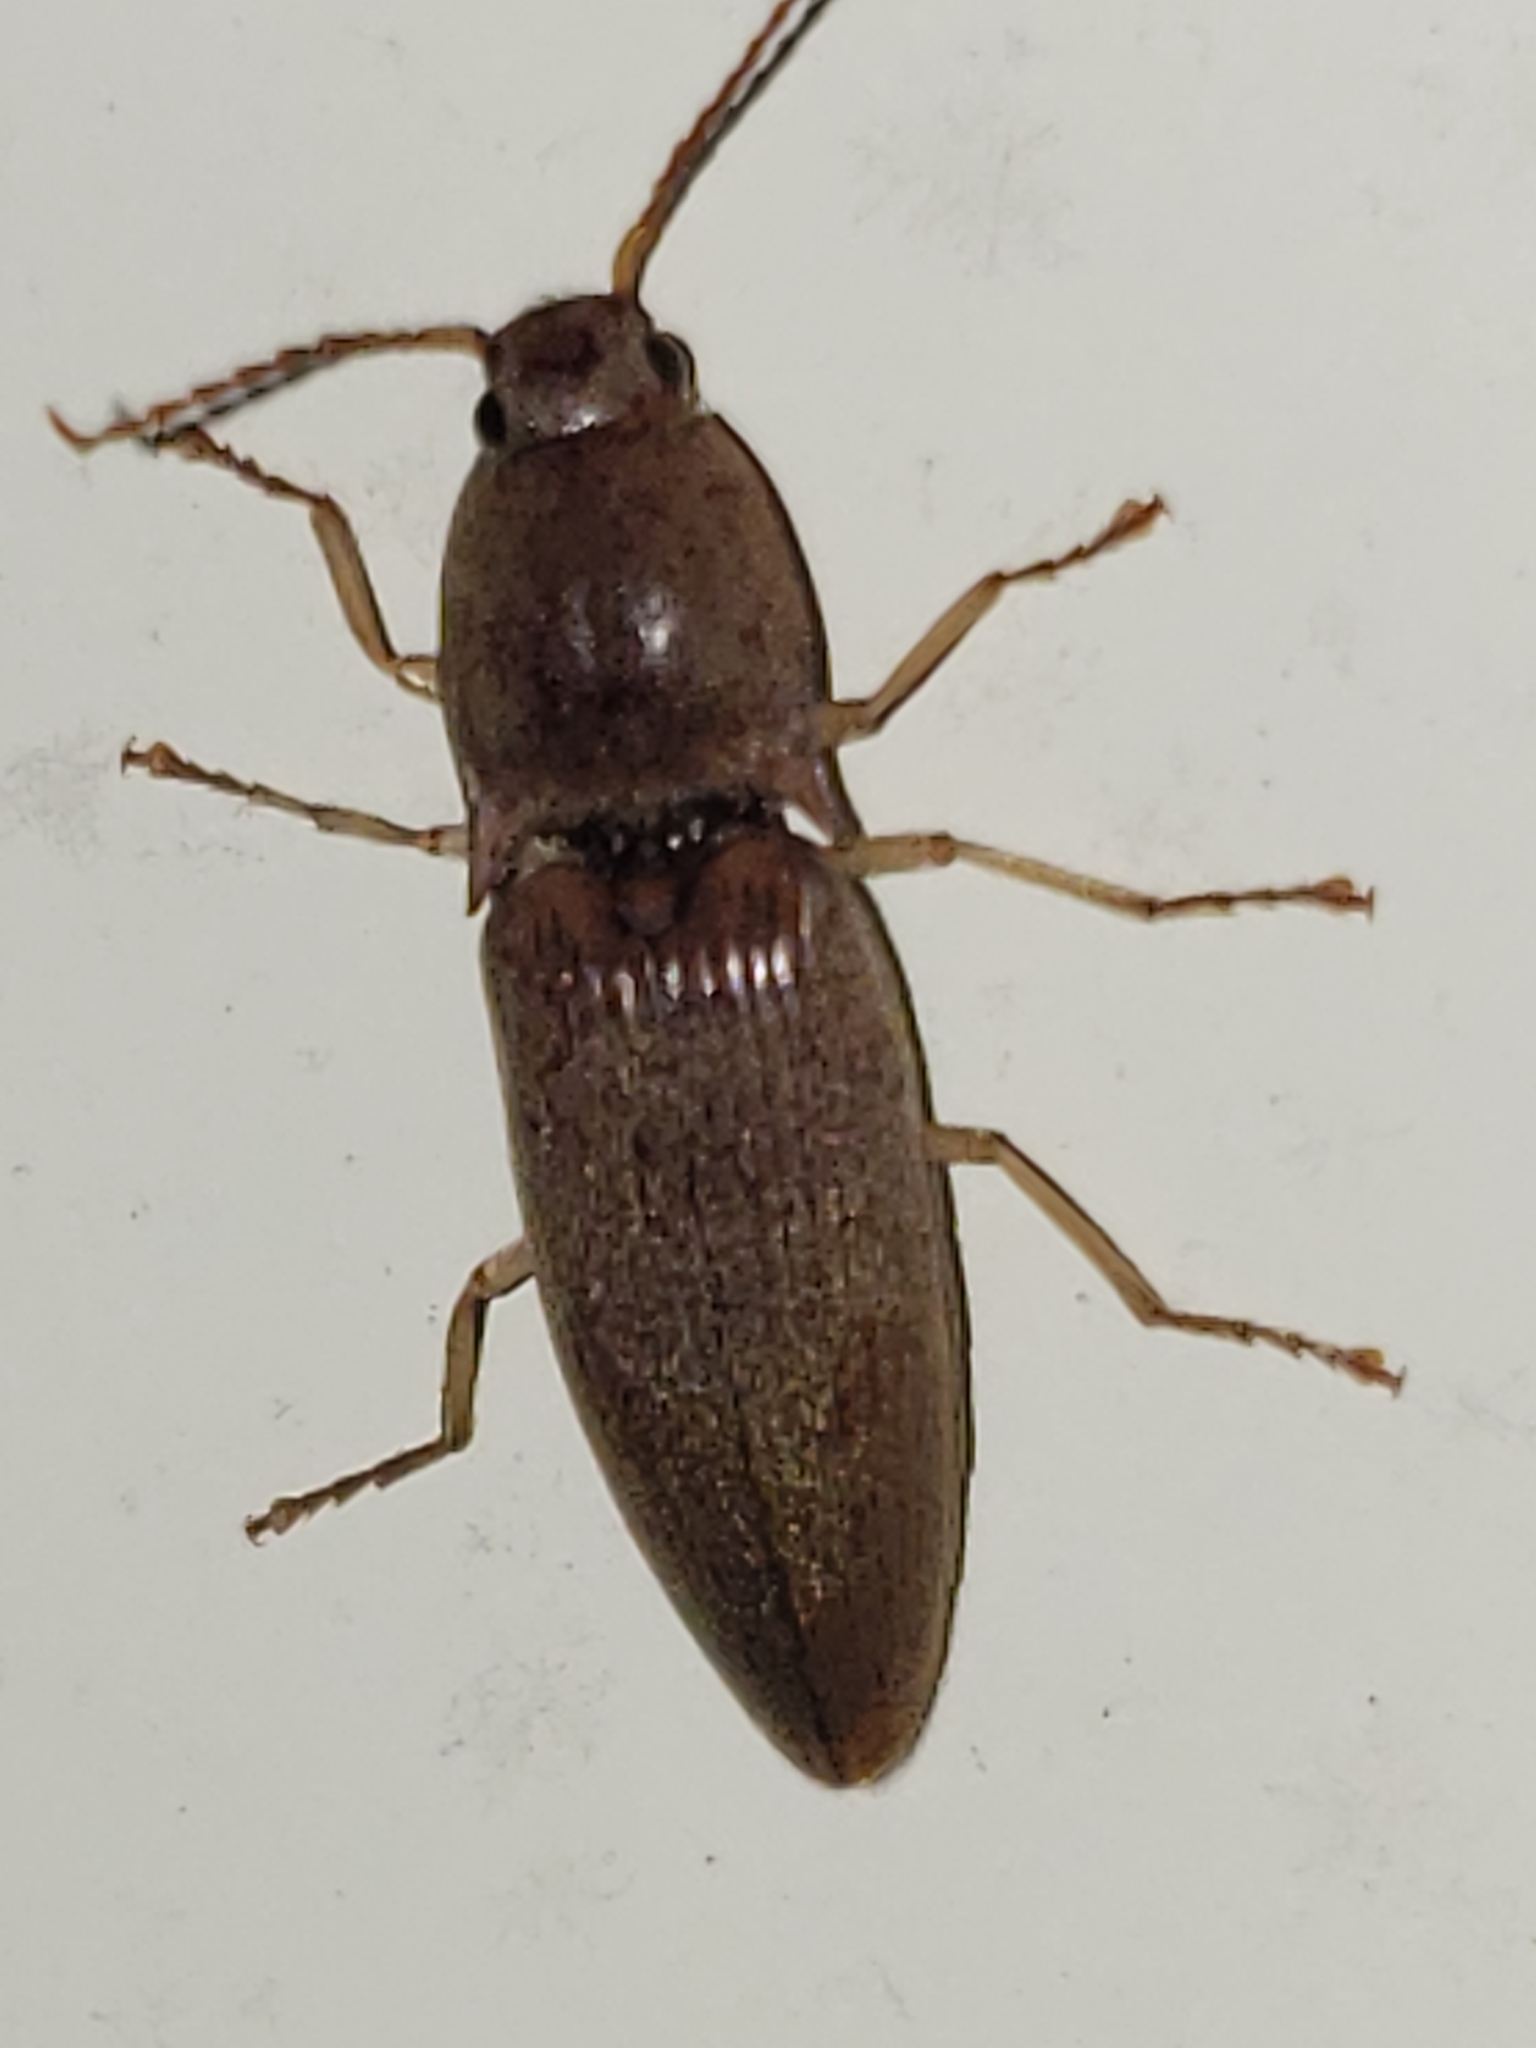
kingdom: Animalia
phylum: Arthropoda
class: Insecta
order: Coleoptera
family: Elateridae
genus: Monocrepidius
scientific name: Monocrepidius lividus
